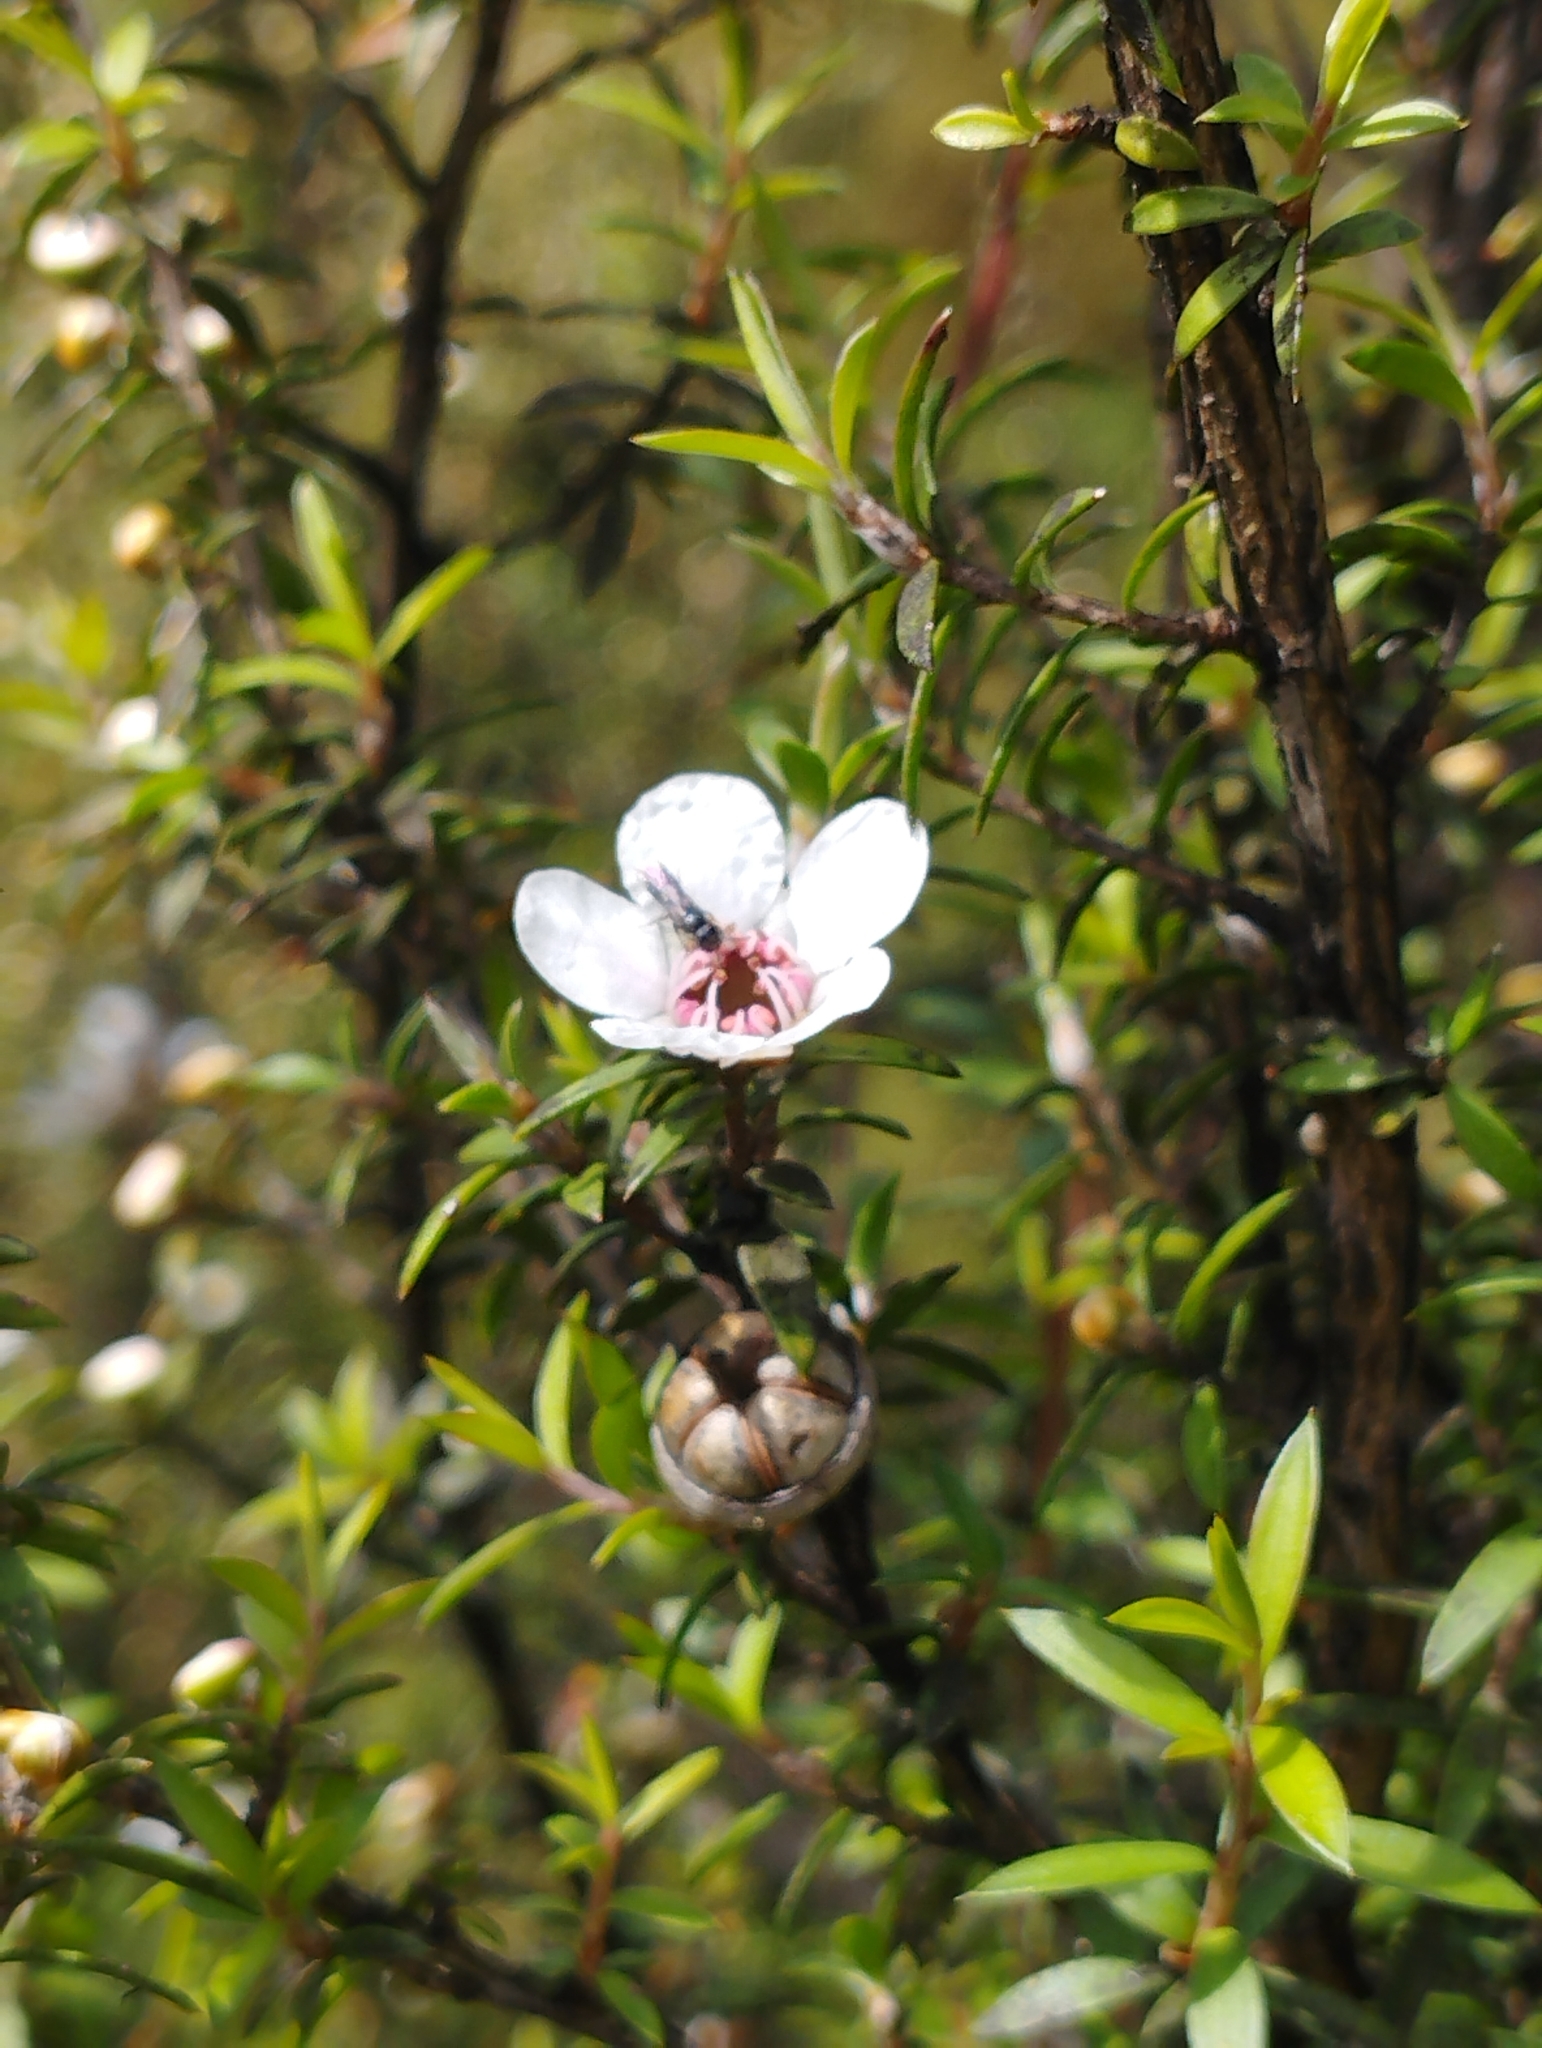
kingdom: Plantae
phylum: Tracheophyta
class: Magnoliopsida
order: Myrtales
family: Myrtaceae
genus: Leptospermum
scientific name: Leptospermum scoparium
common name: Broom tea-tree
